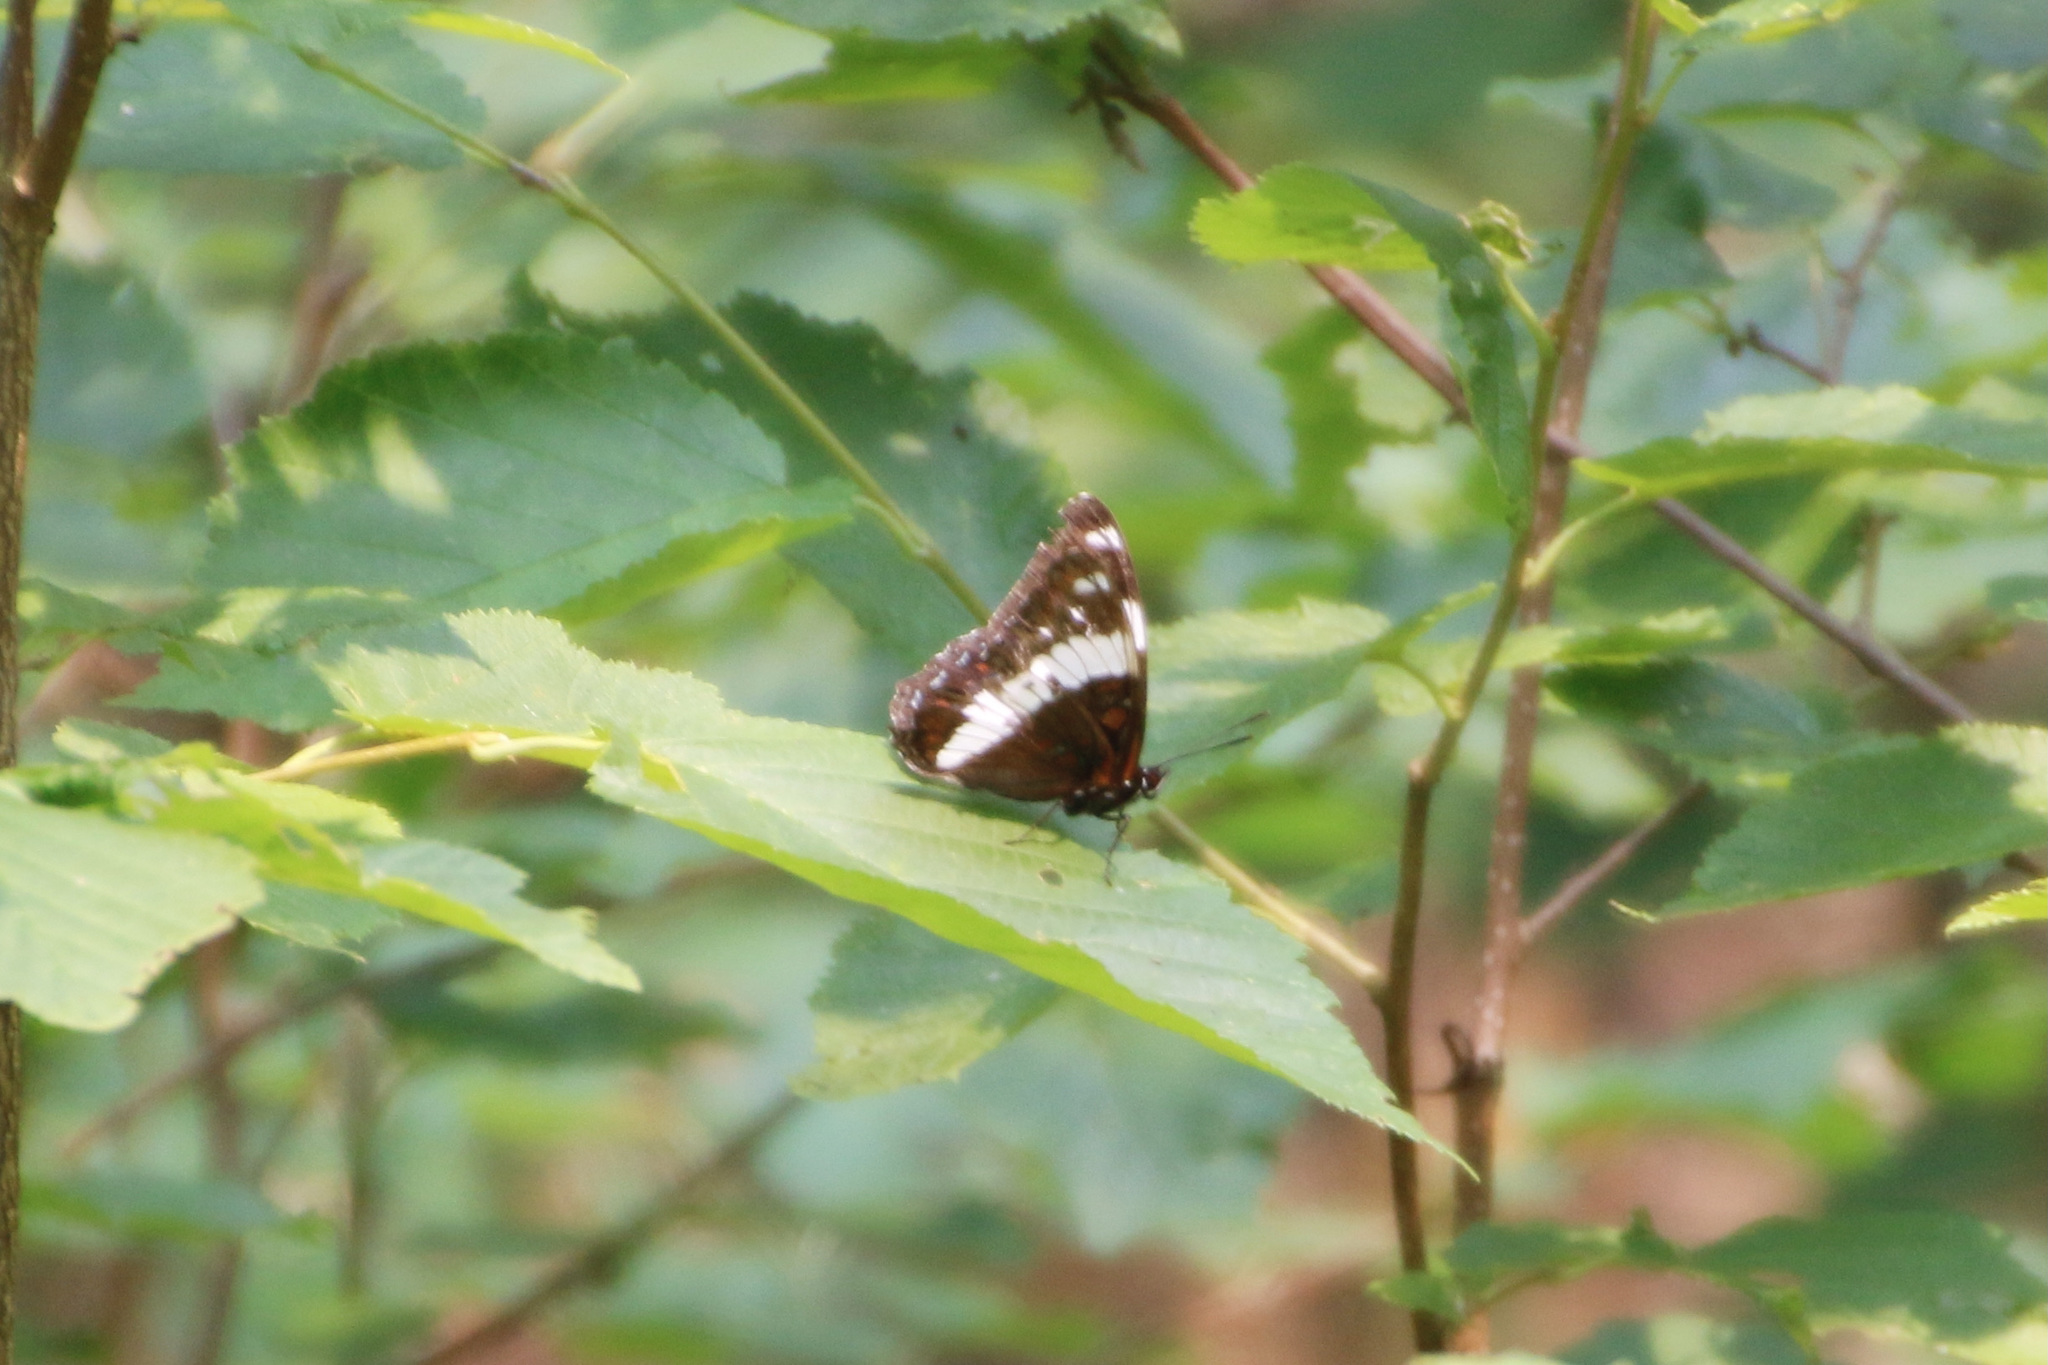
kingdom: Animalia
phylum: Arthropoda
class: Insecta
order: Lepidoptera
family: Nymphalidae
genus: Limenitis
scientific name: Limenitis arthemis
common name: Red-spotted admiral
